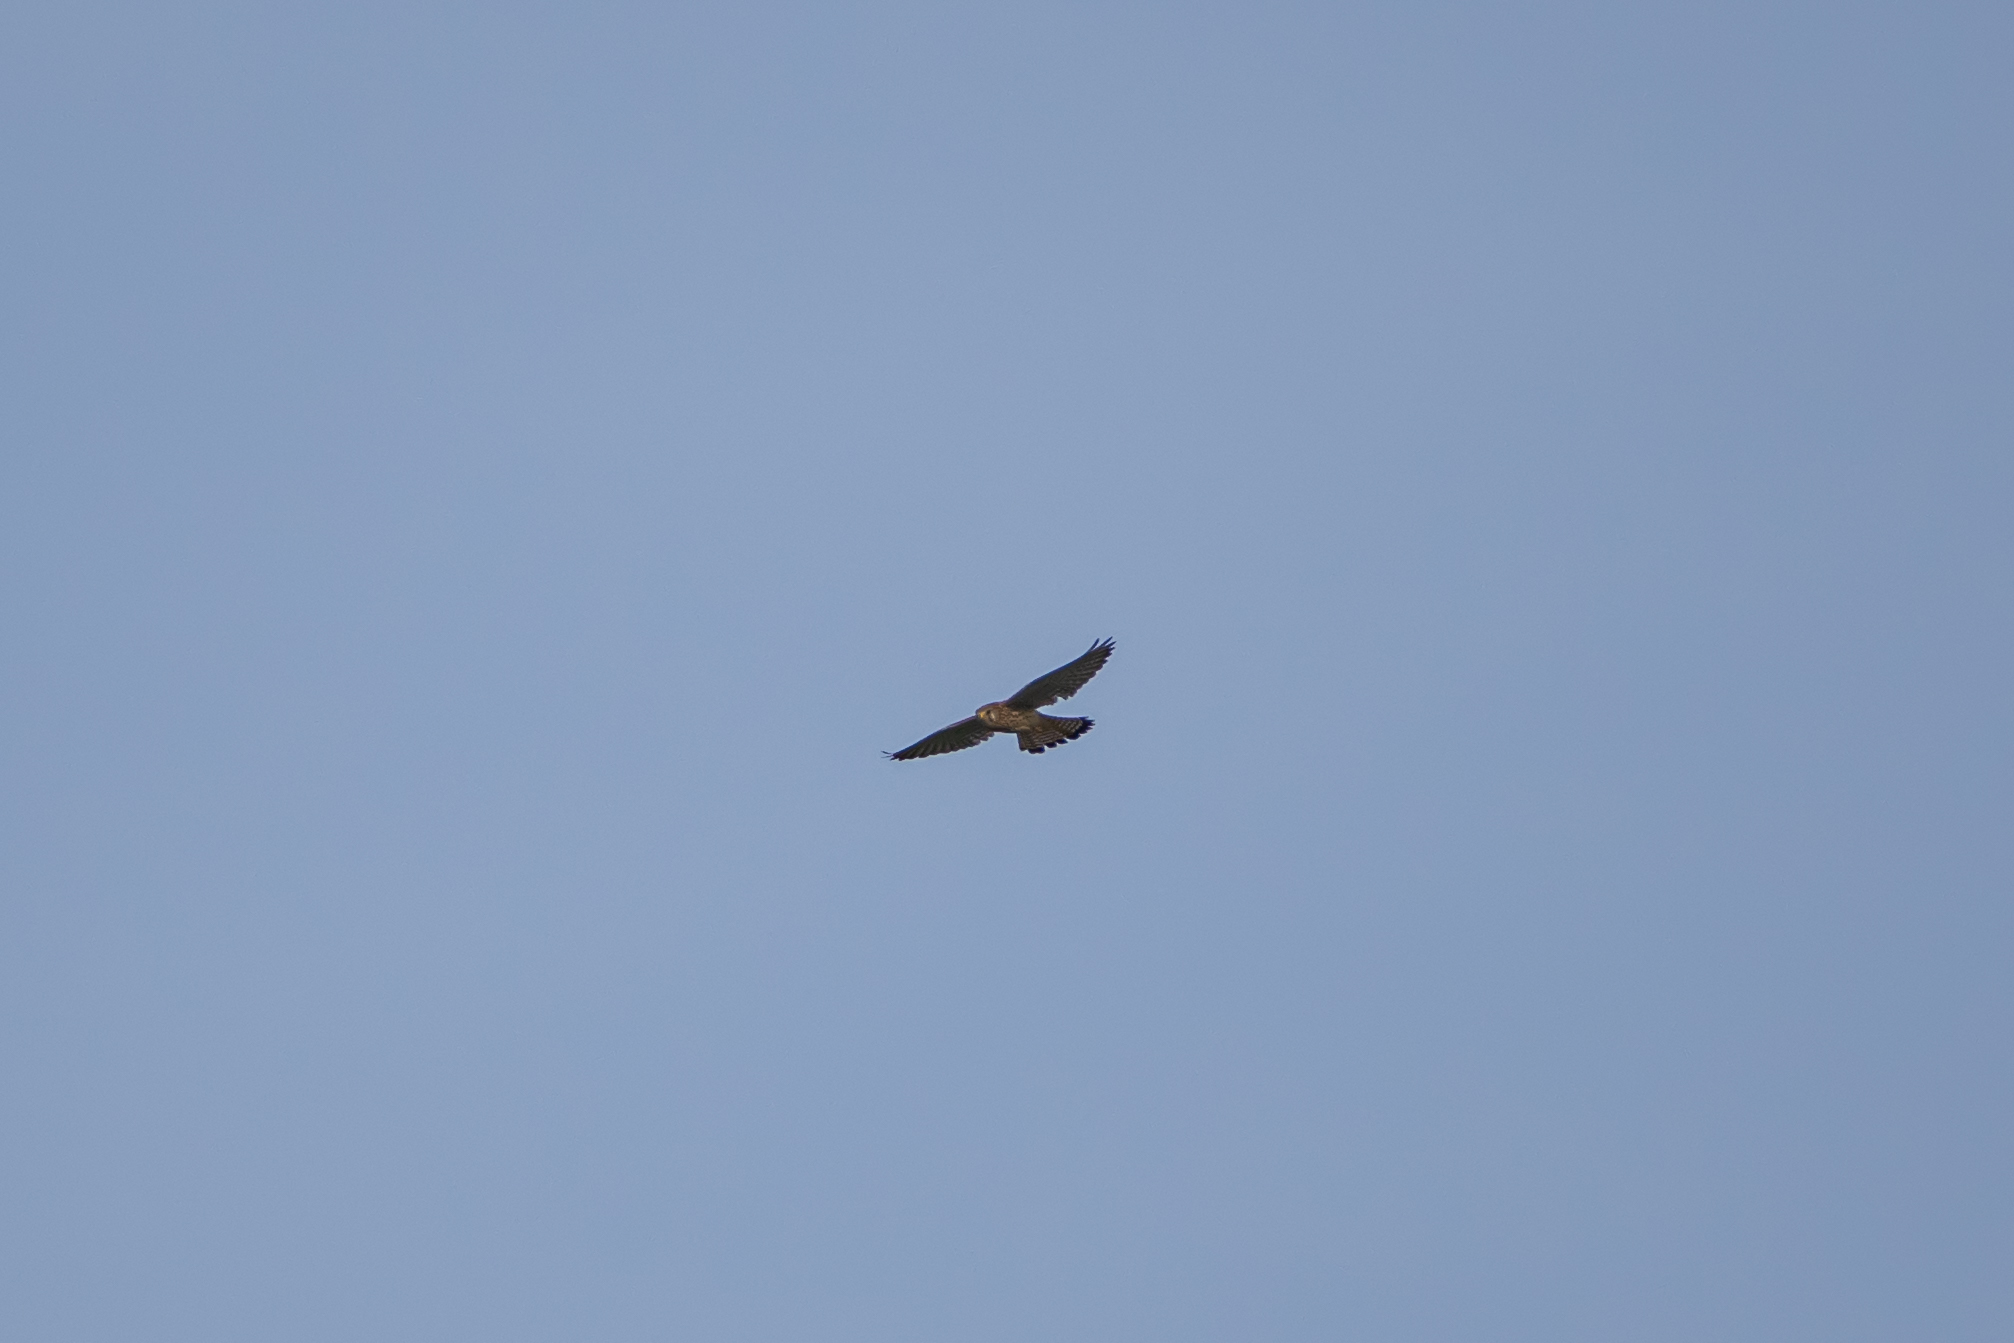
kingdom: Animalia
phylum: Chordata
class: Aves
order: Falconiformes
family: Falconidae
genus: Falco
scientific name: Falco tinnunculus
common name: Common kestrel
